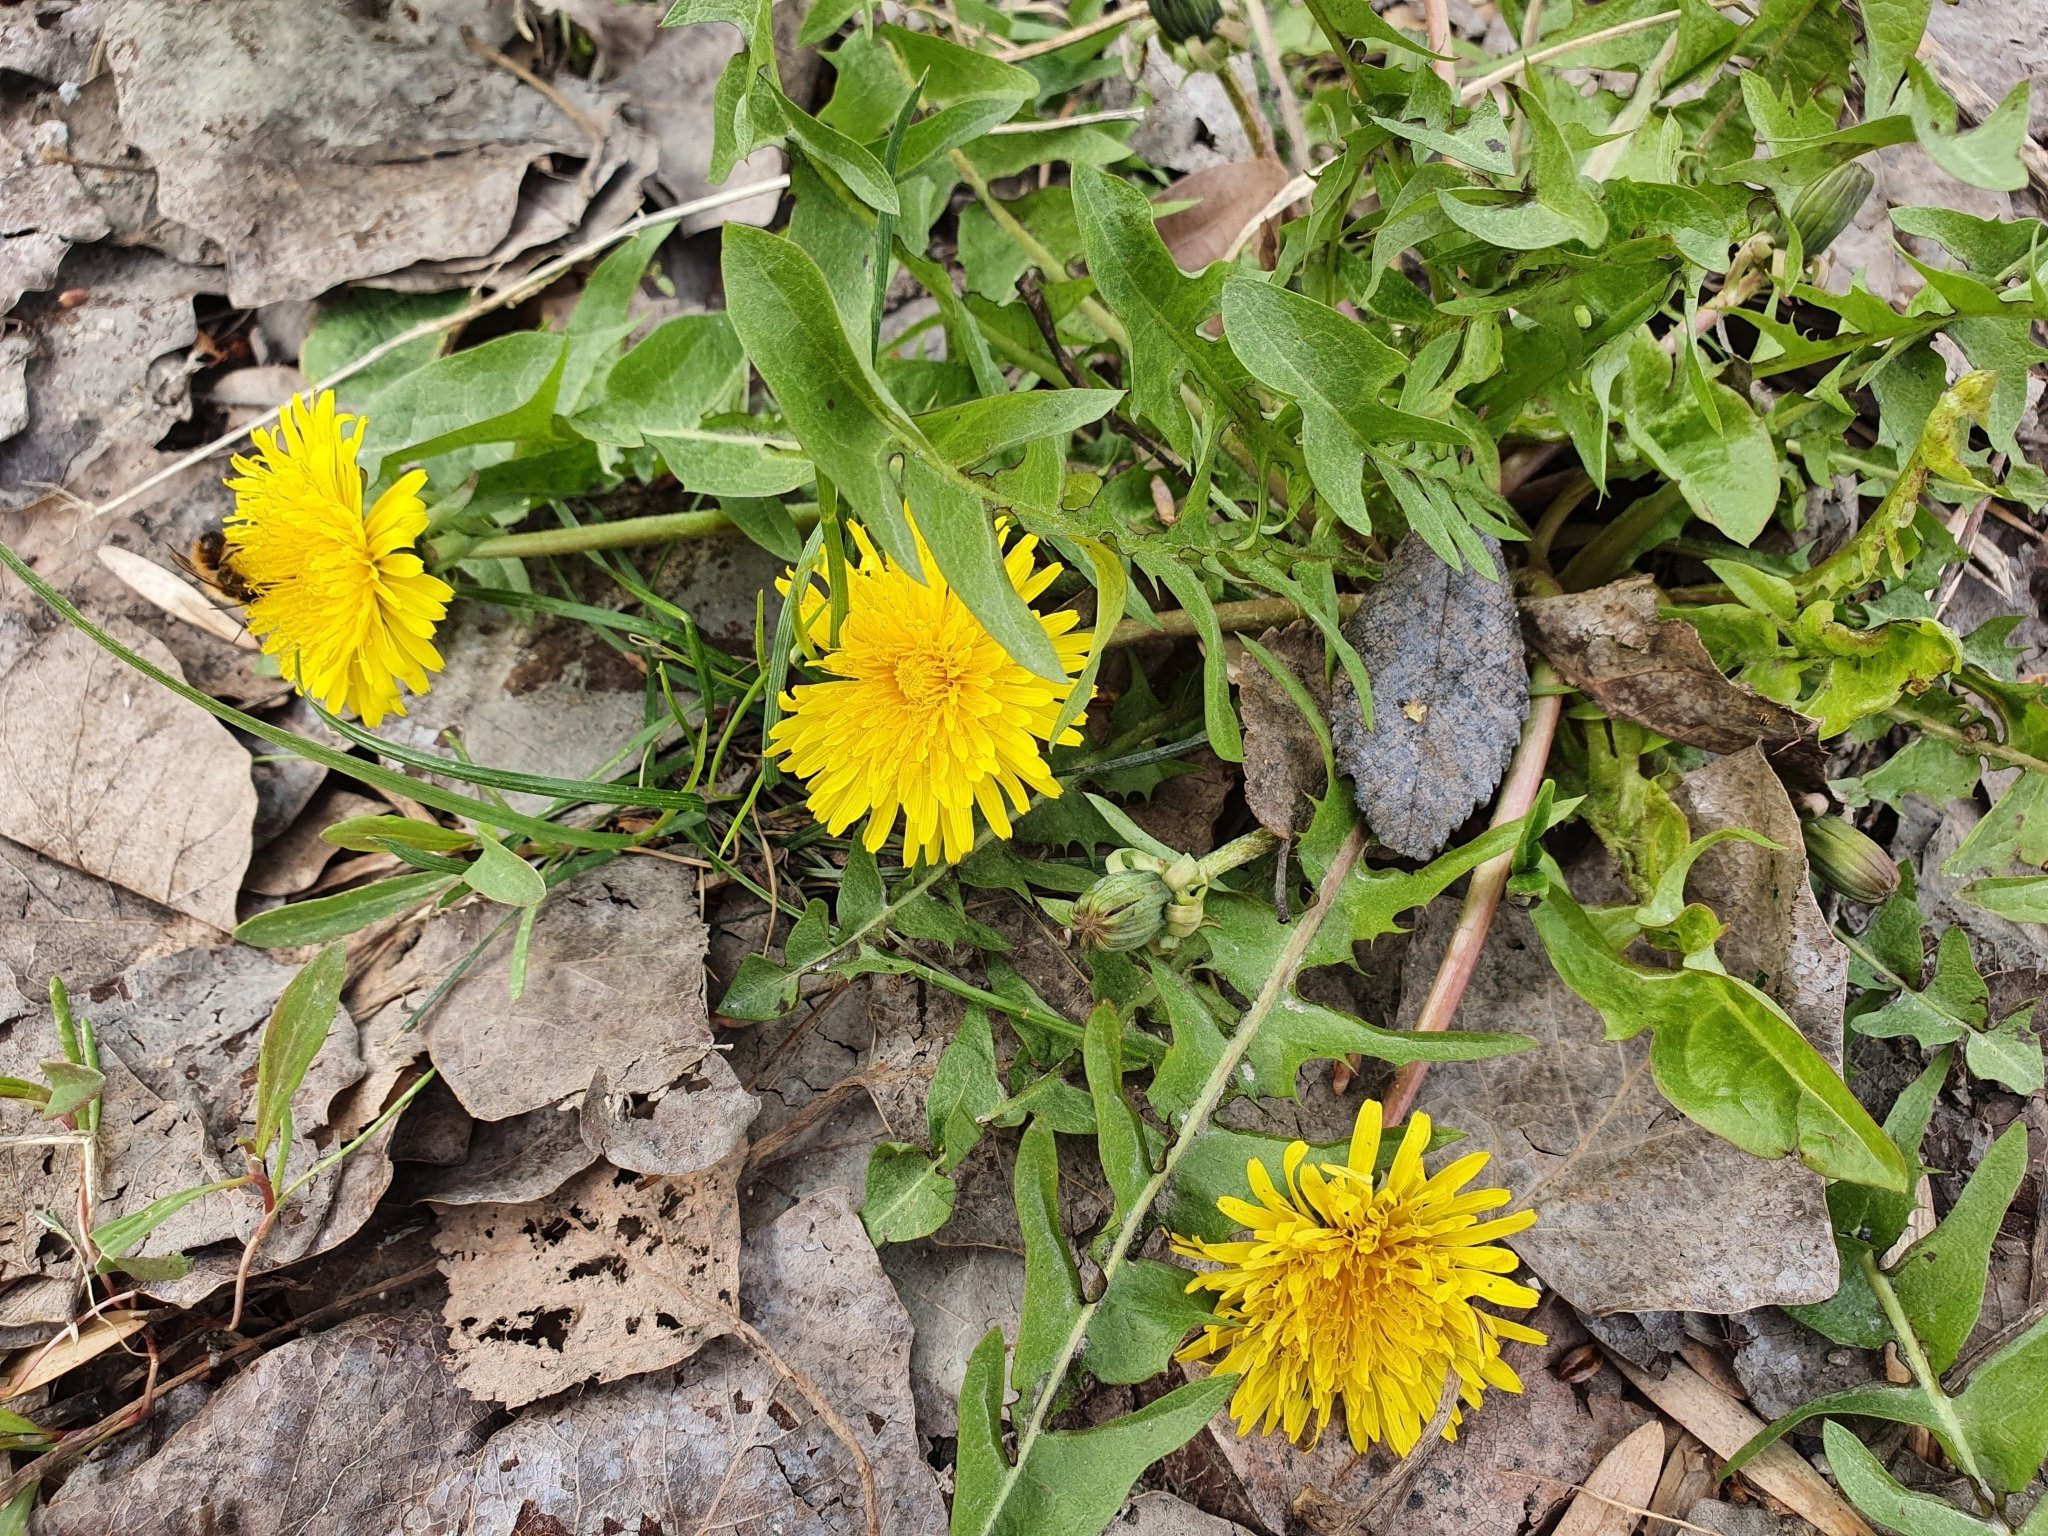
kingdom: Plantae
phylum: Tracheophyta
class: Magnoliopsida
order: Asterales
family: Asteraceae
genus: Taraxacum
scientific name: Taraxacum officinale
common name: Common dandelion
